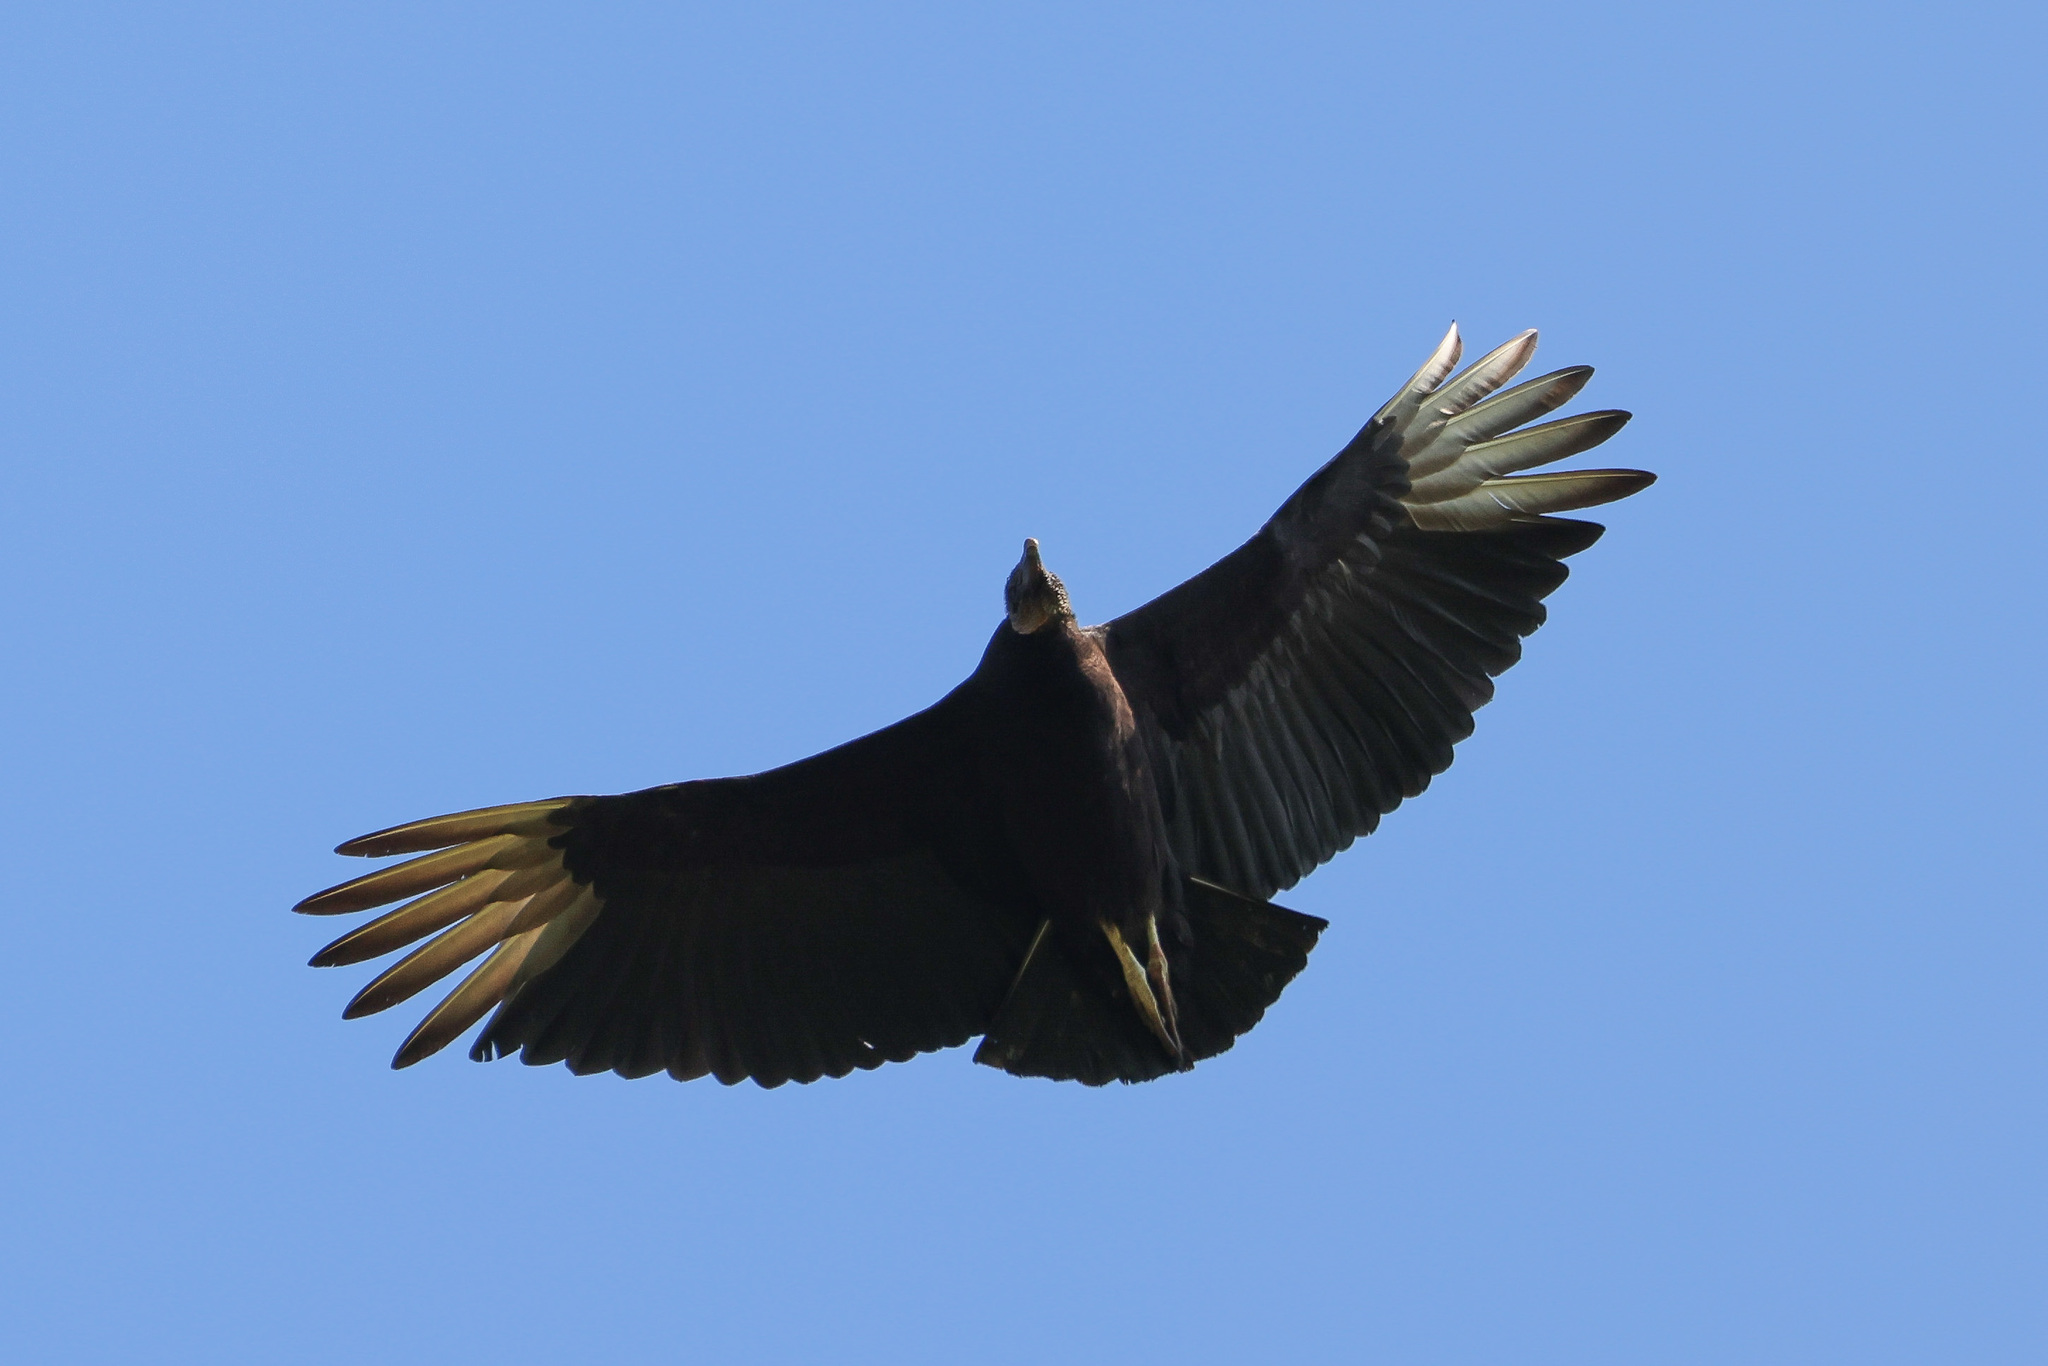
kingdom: Animalia
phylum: Chordata
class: Aves
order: Accipitriformes
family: Cathartidae
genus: Coragyps
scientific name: Coragyps atratus
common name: Black vulture
